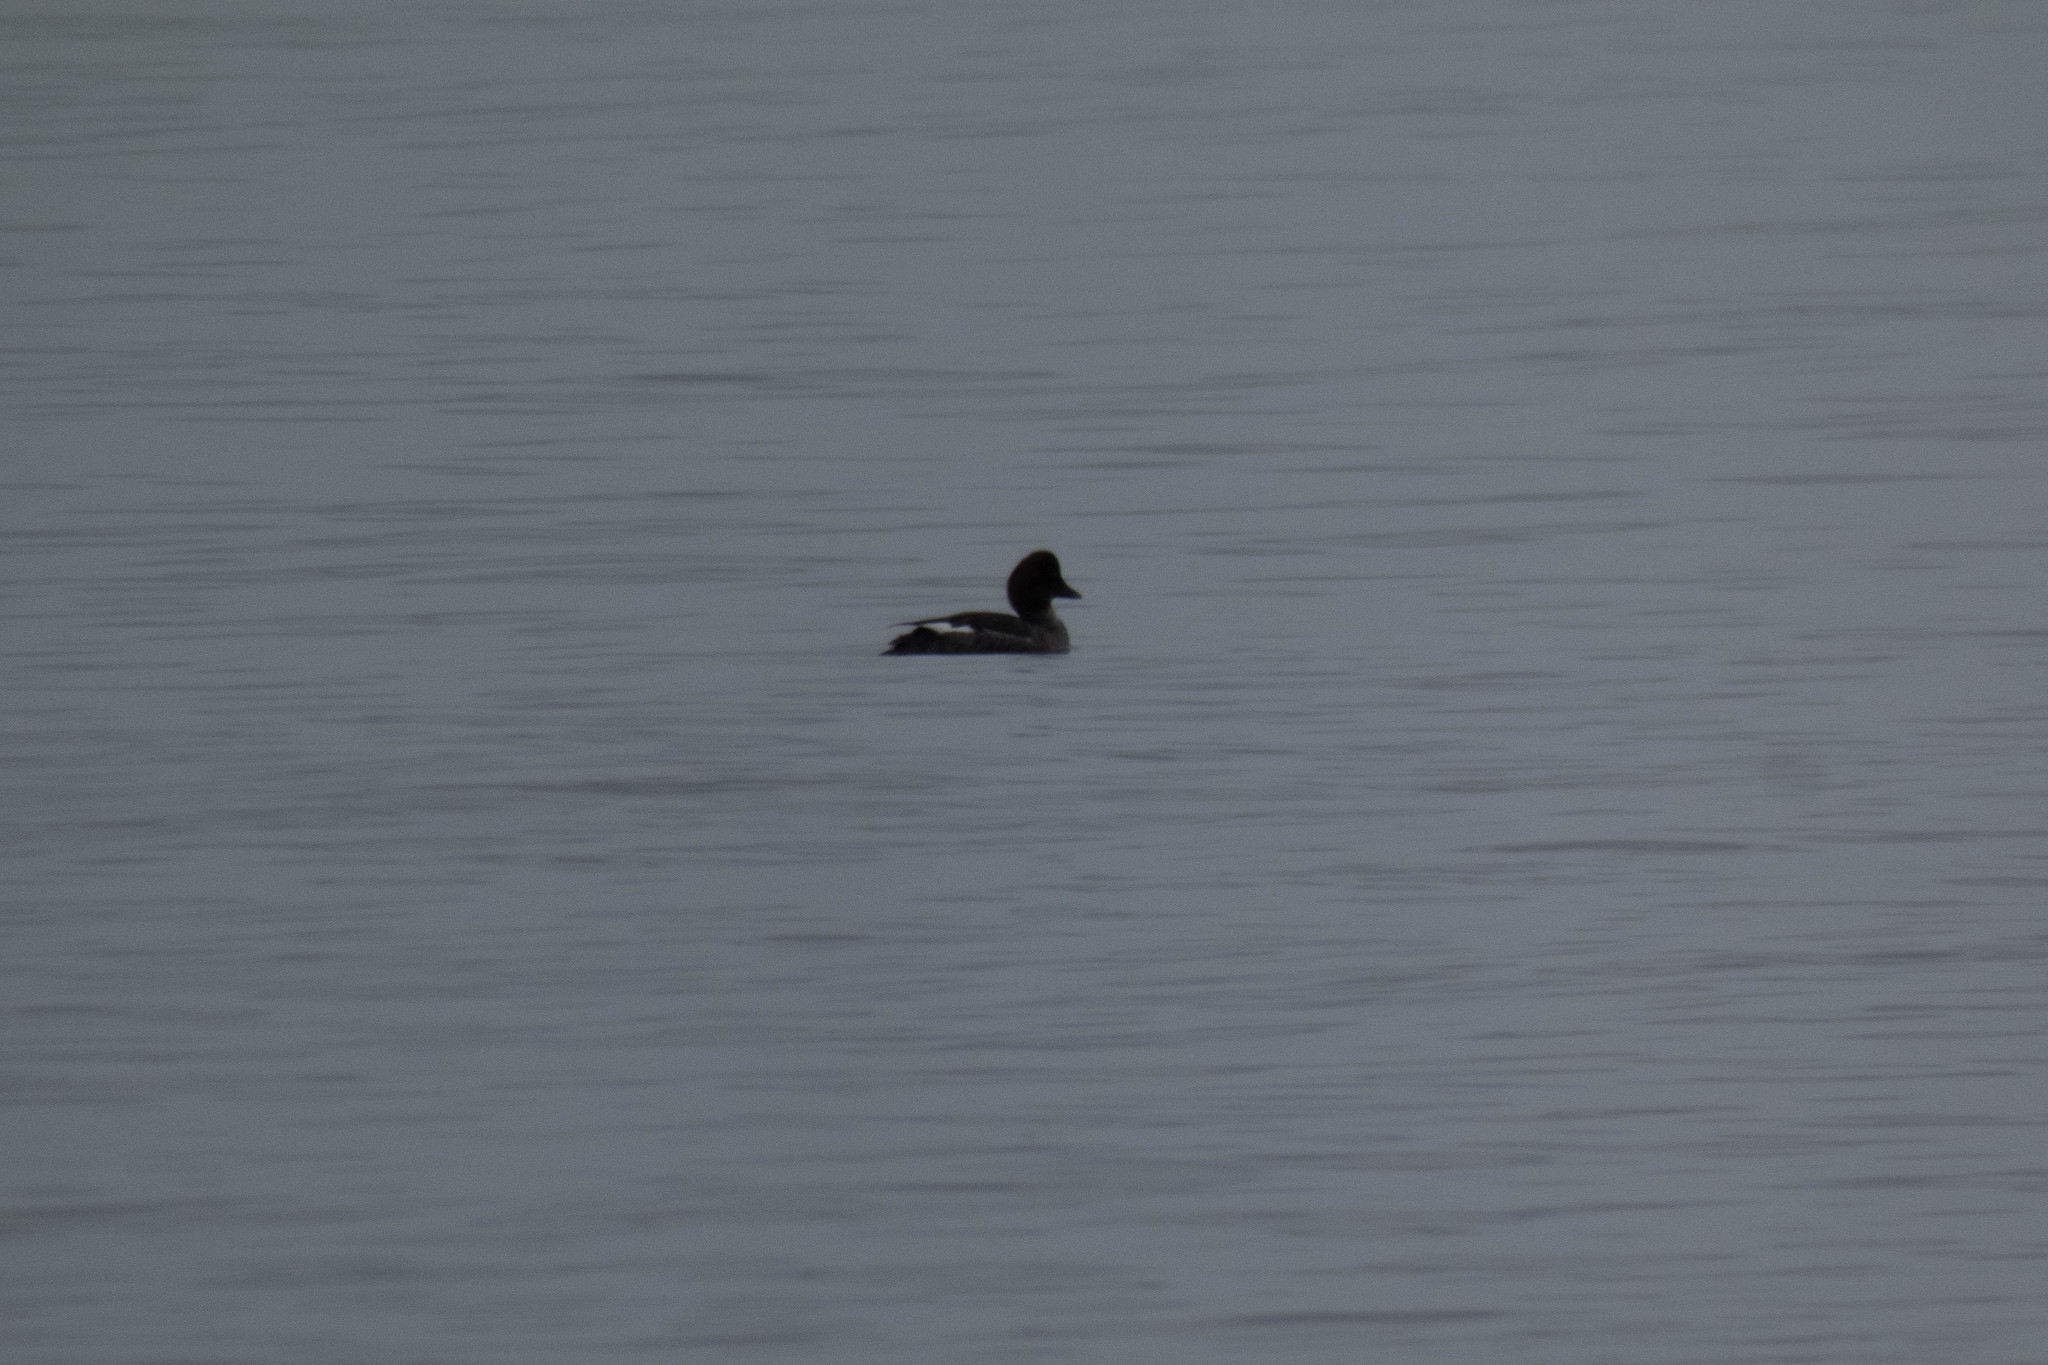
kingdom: Animalia
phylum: Chordata
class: Aves
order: Anseriformes
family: Anatidae
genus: Bucephala
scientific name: Bucephala clangula
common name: Common goldeneye
